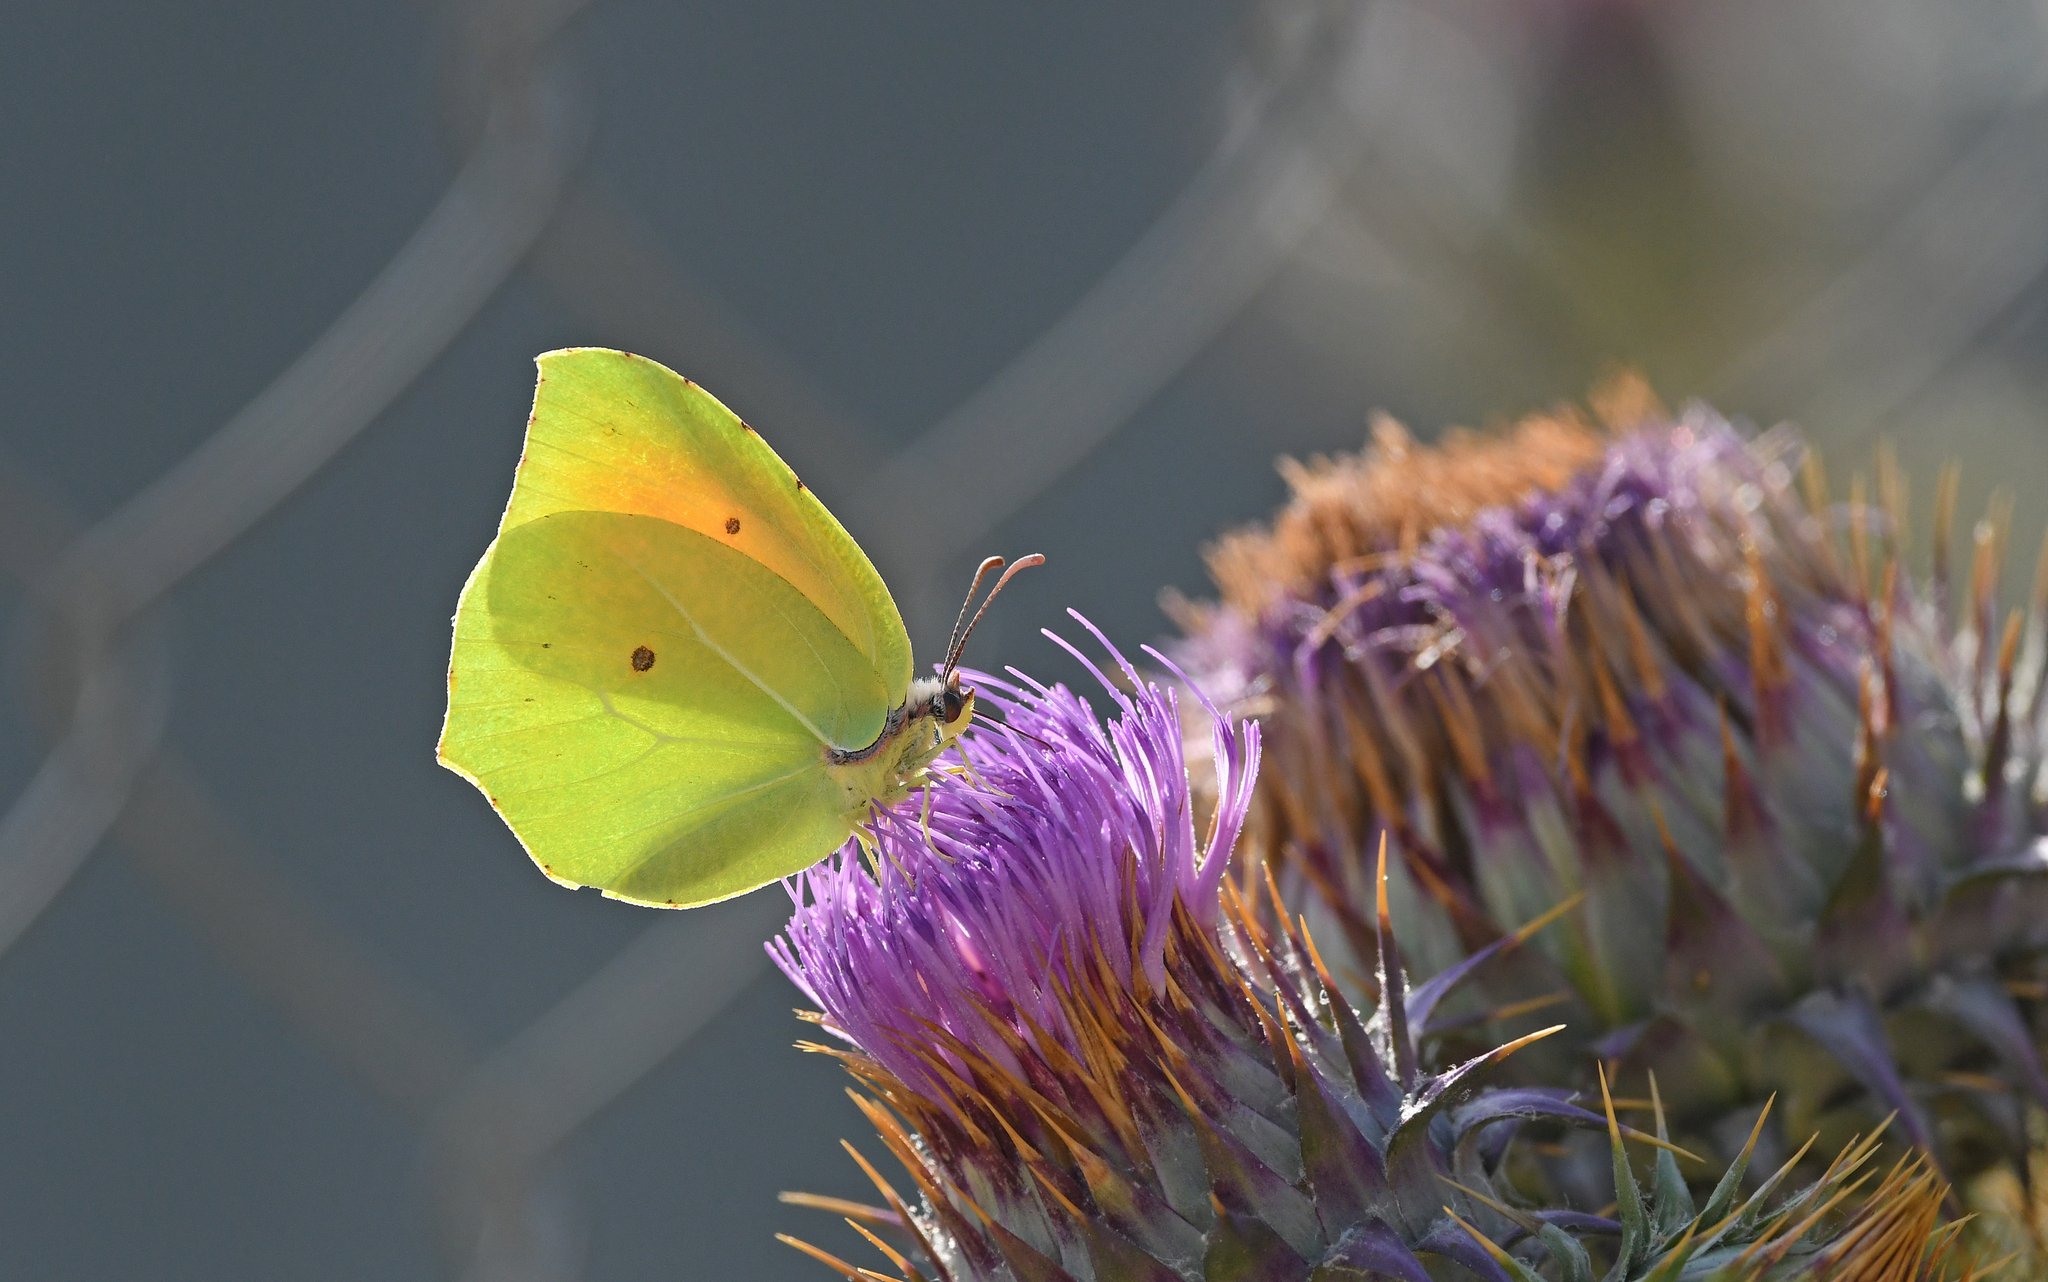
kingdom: Animalia
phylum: Arthropoda
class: Insecta
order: Lepidoptera
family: Pieridae
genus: Gonepteryx
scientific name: Gonepteryx cleopatra
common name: Cleopatra
